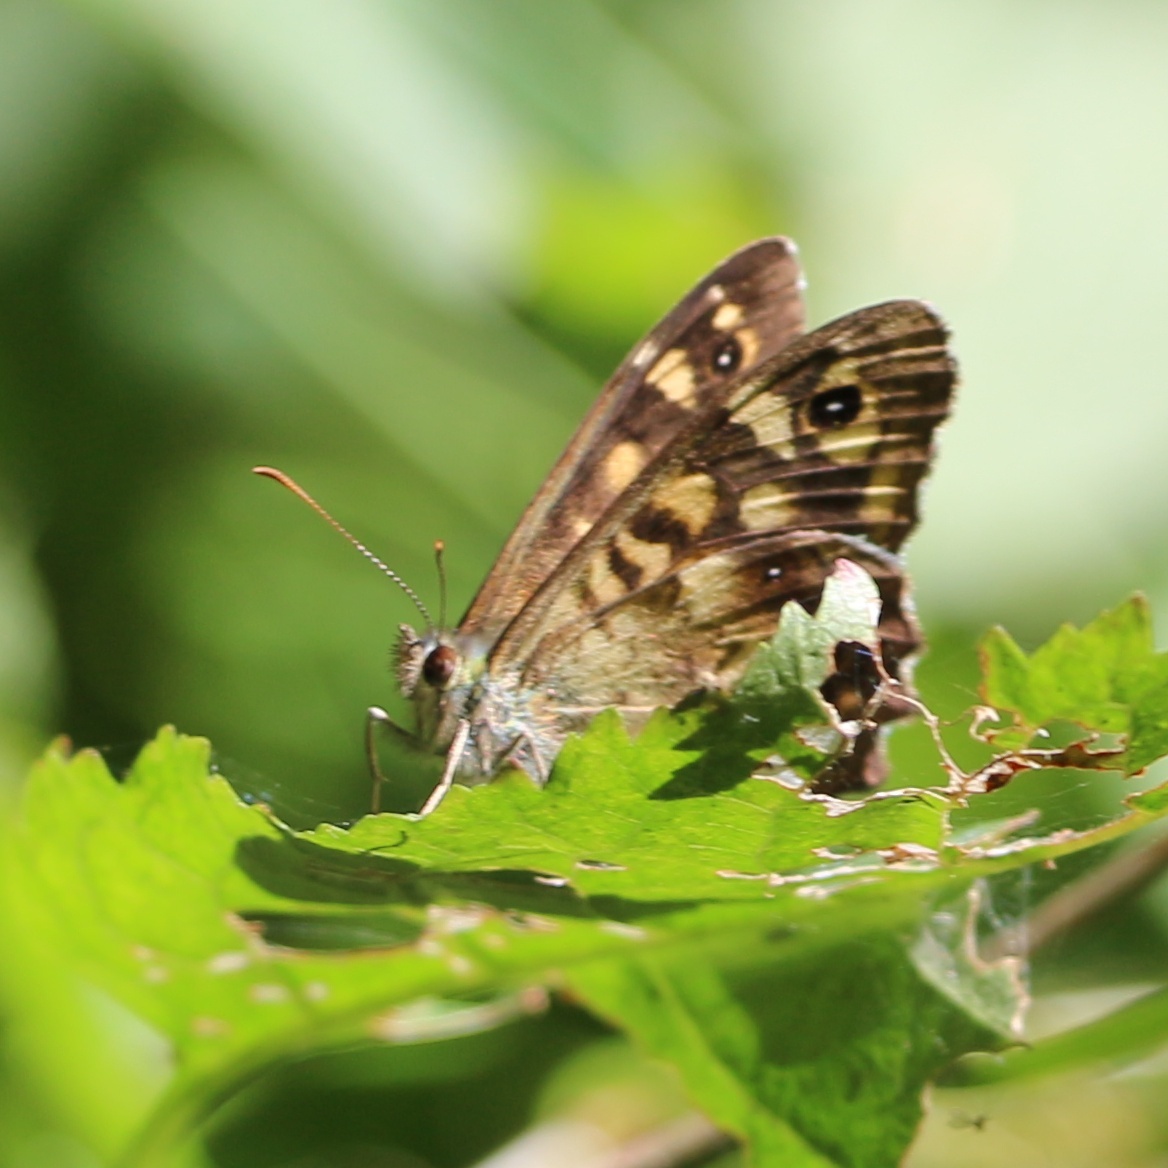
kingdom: Animalia
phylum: Arthropoda
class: Insecta
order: Lepidoptera
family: Nymphalidae
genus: Pararge
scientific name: Pararge aegeria
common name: Speckled wood
